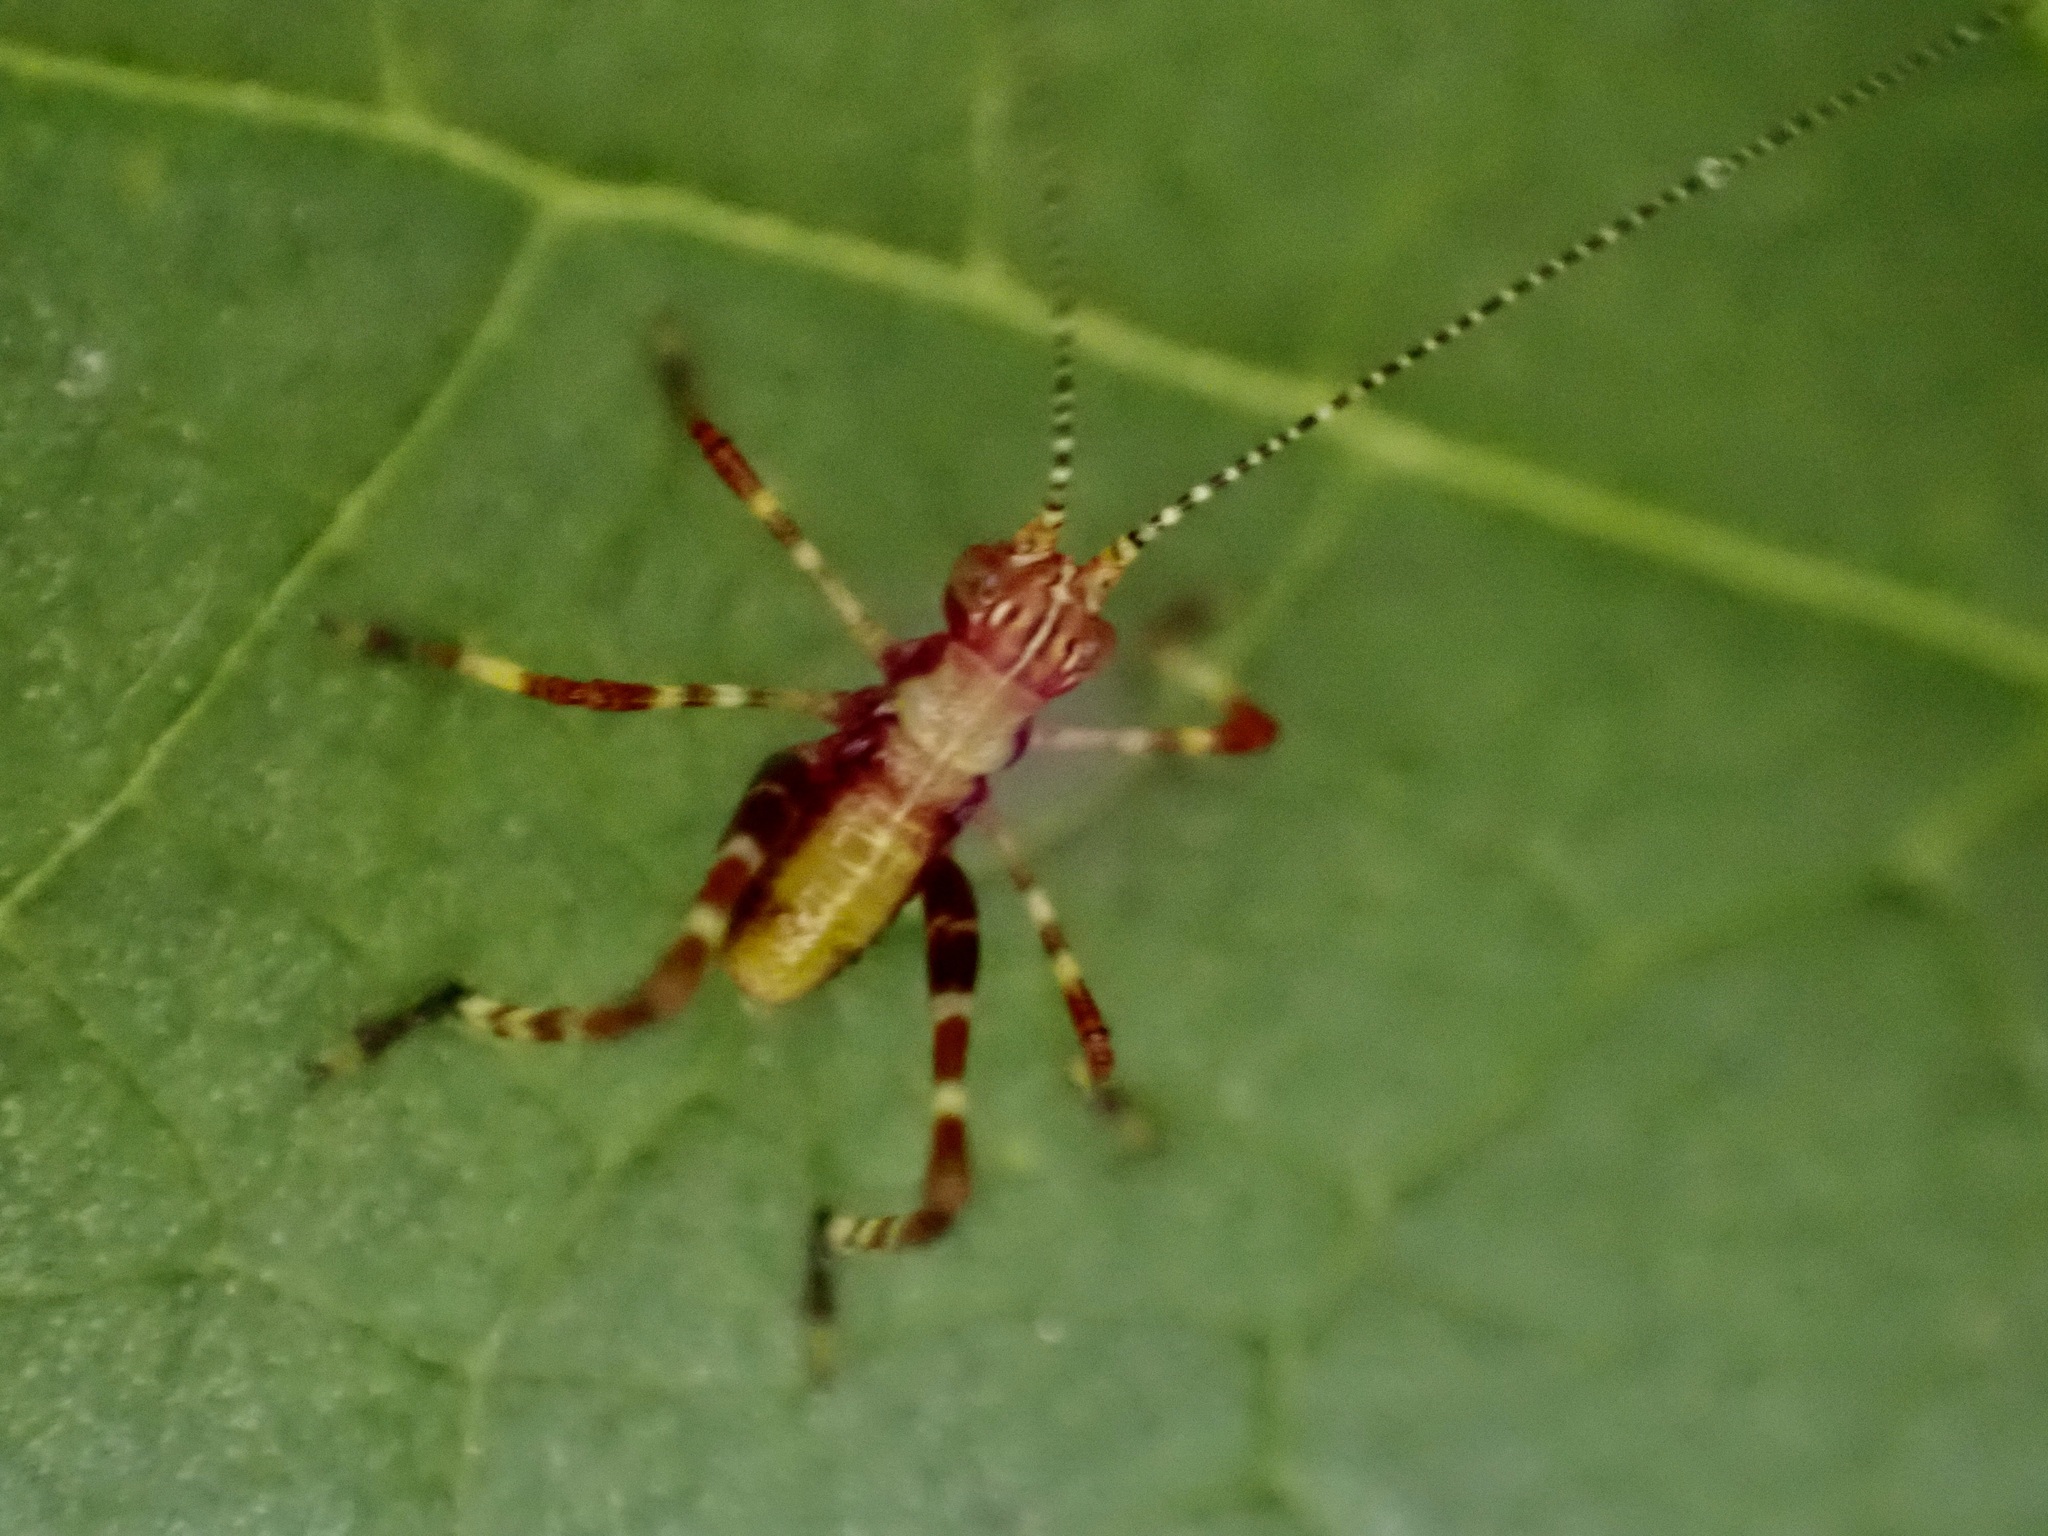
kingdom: Animalia
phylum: Arthropoda
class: Insecta
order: Orthoptera
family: Tettigoniidae
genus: Caedicia
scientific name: Caedicia simplex
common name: Common garden katydid
